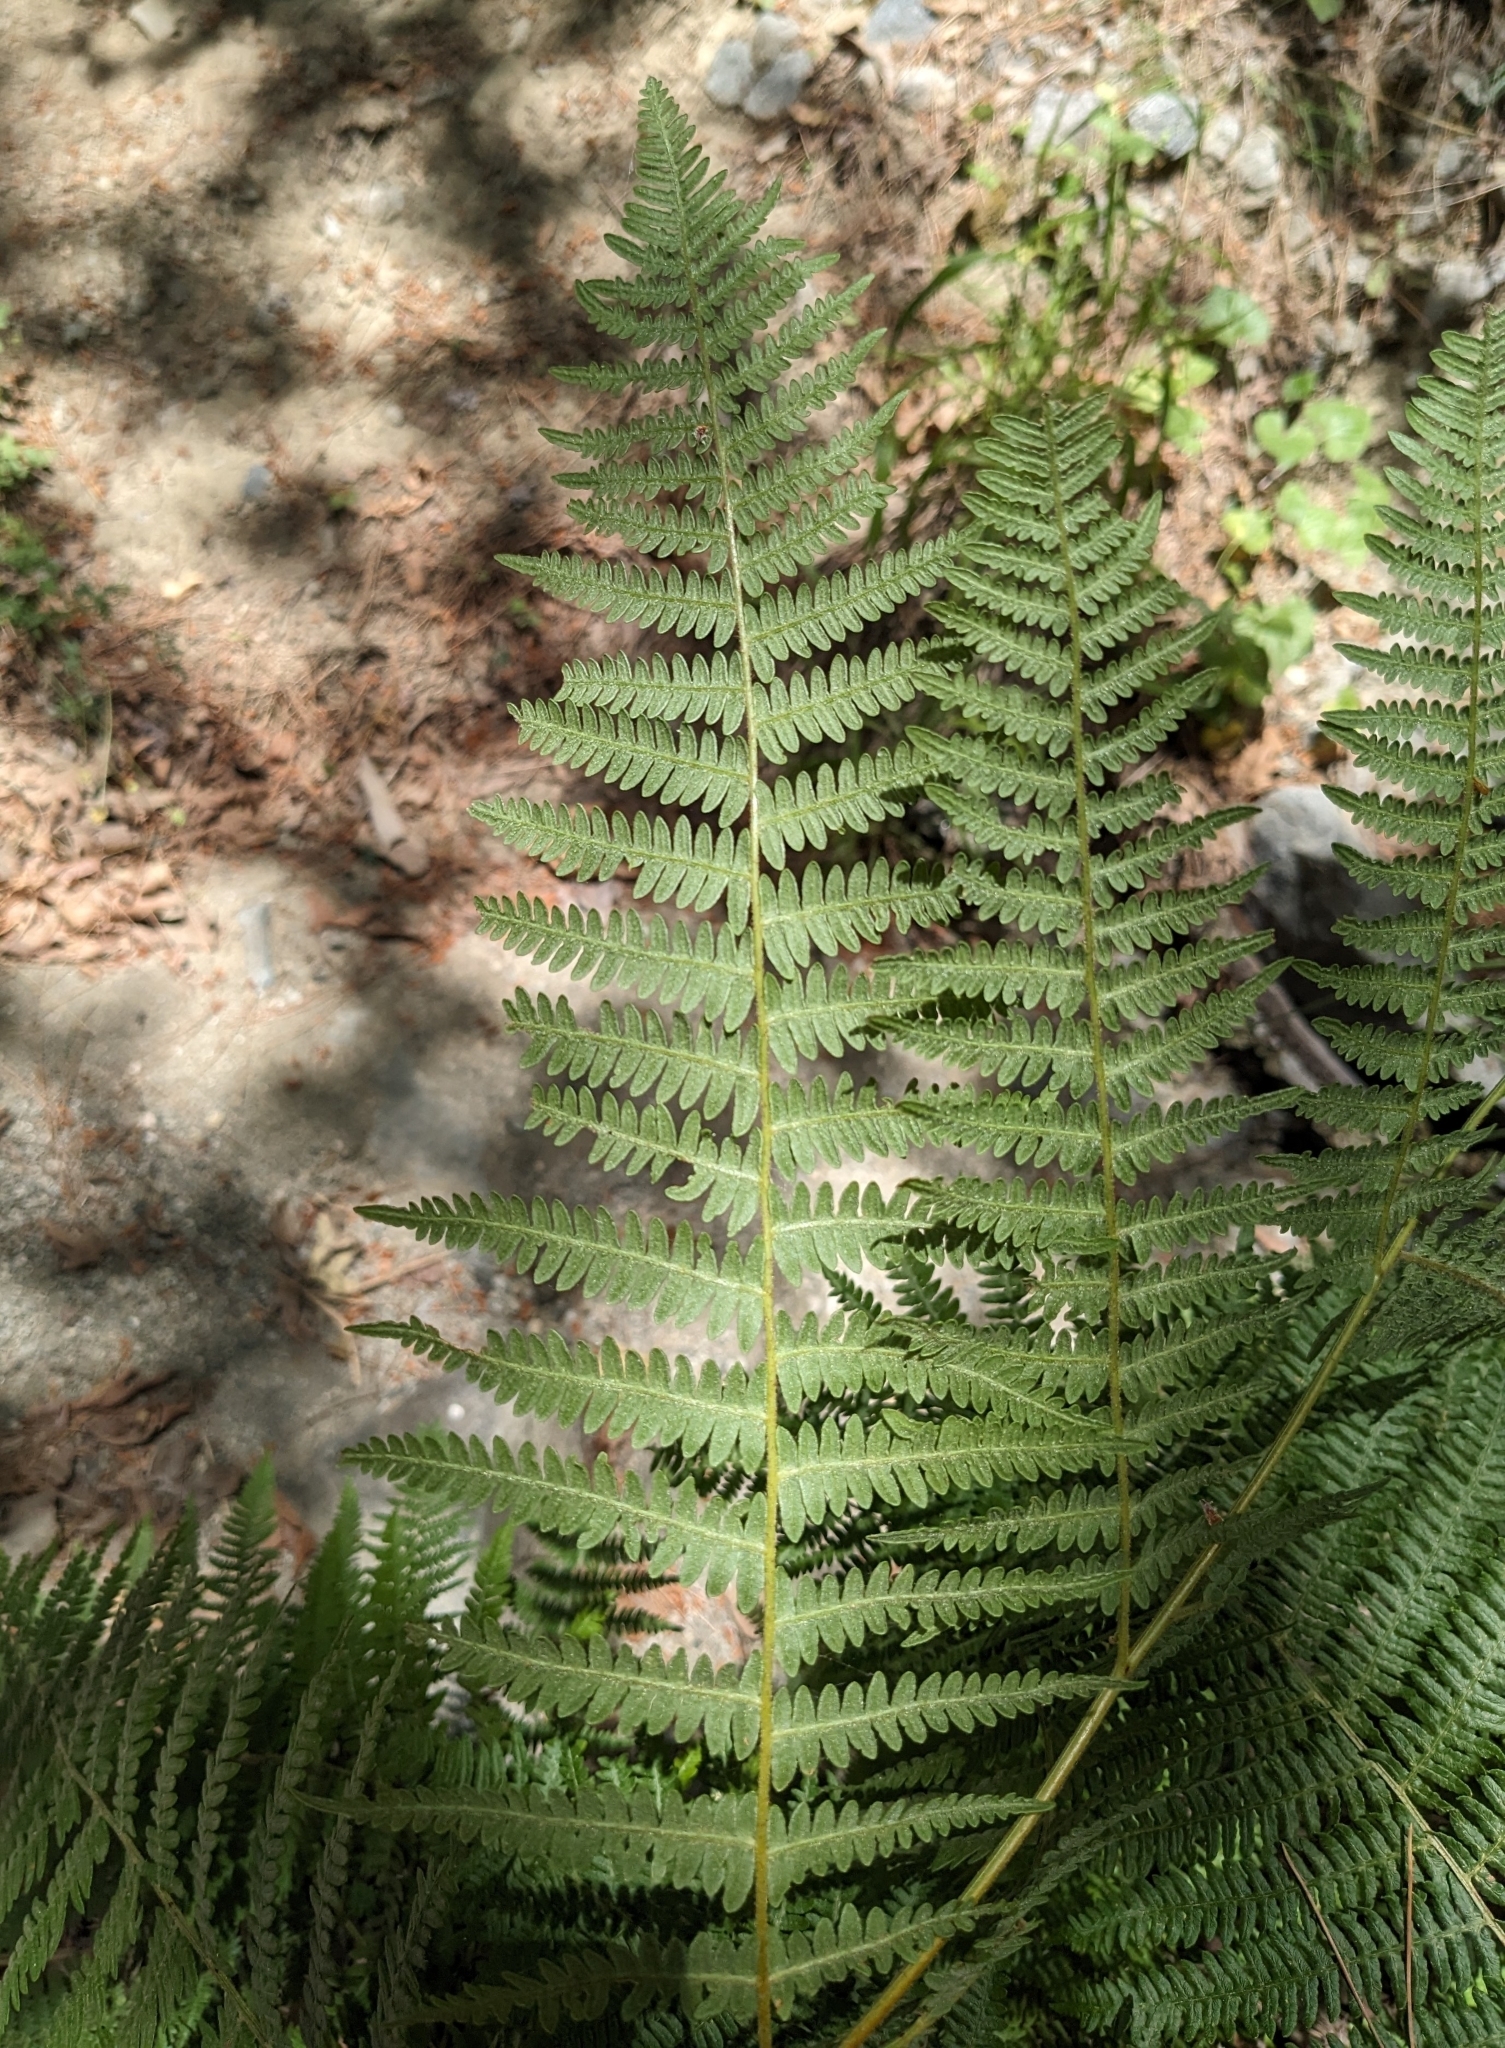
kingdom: Plantae
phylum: Tracheophyta
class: Polypodiopsida
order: Polypodiales
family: Dennstaedtiaceae
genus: Pteridium
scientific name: Pteridium aquilinum
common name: Bracken
